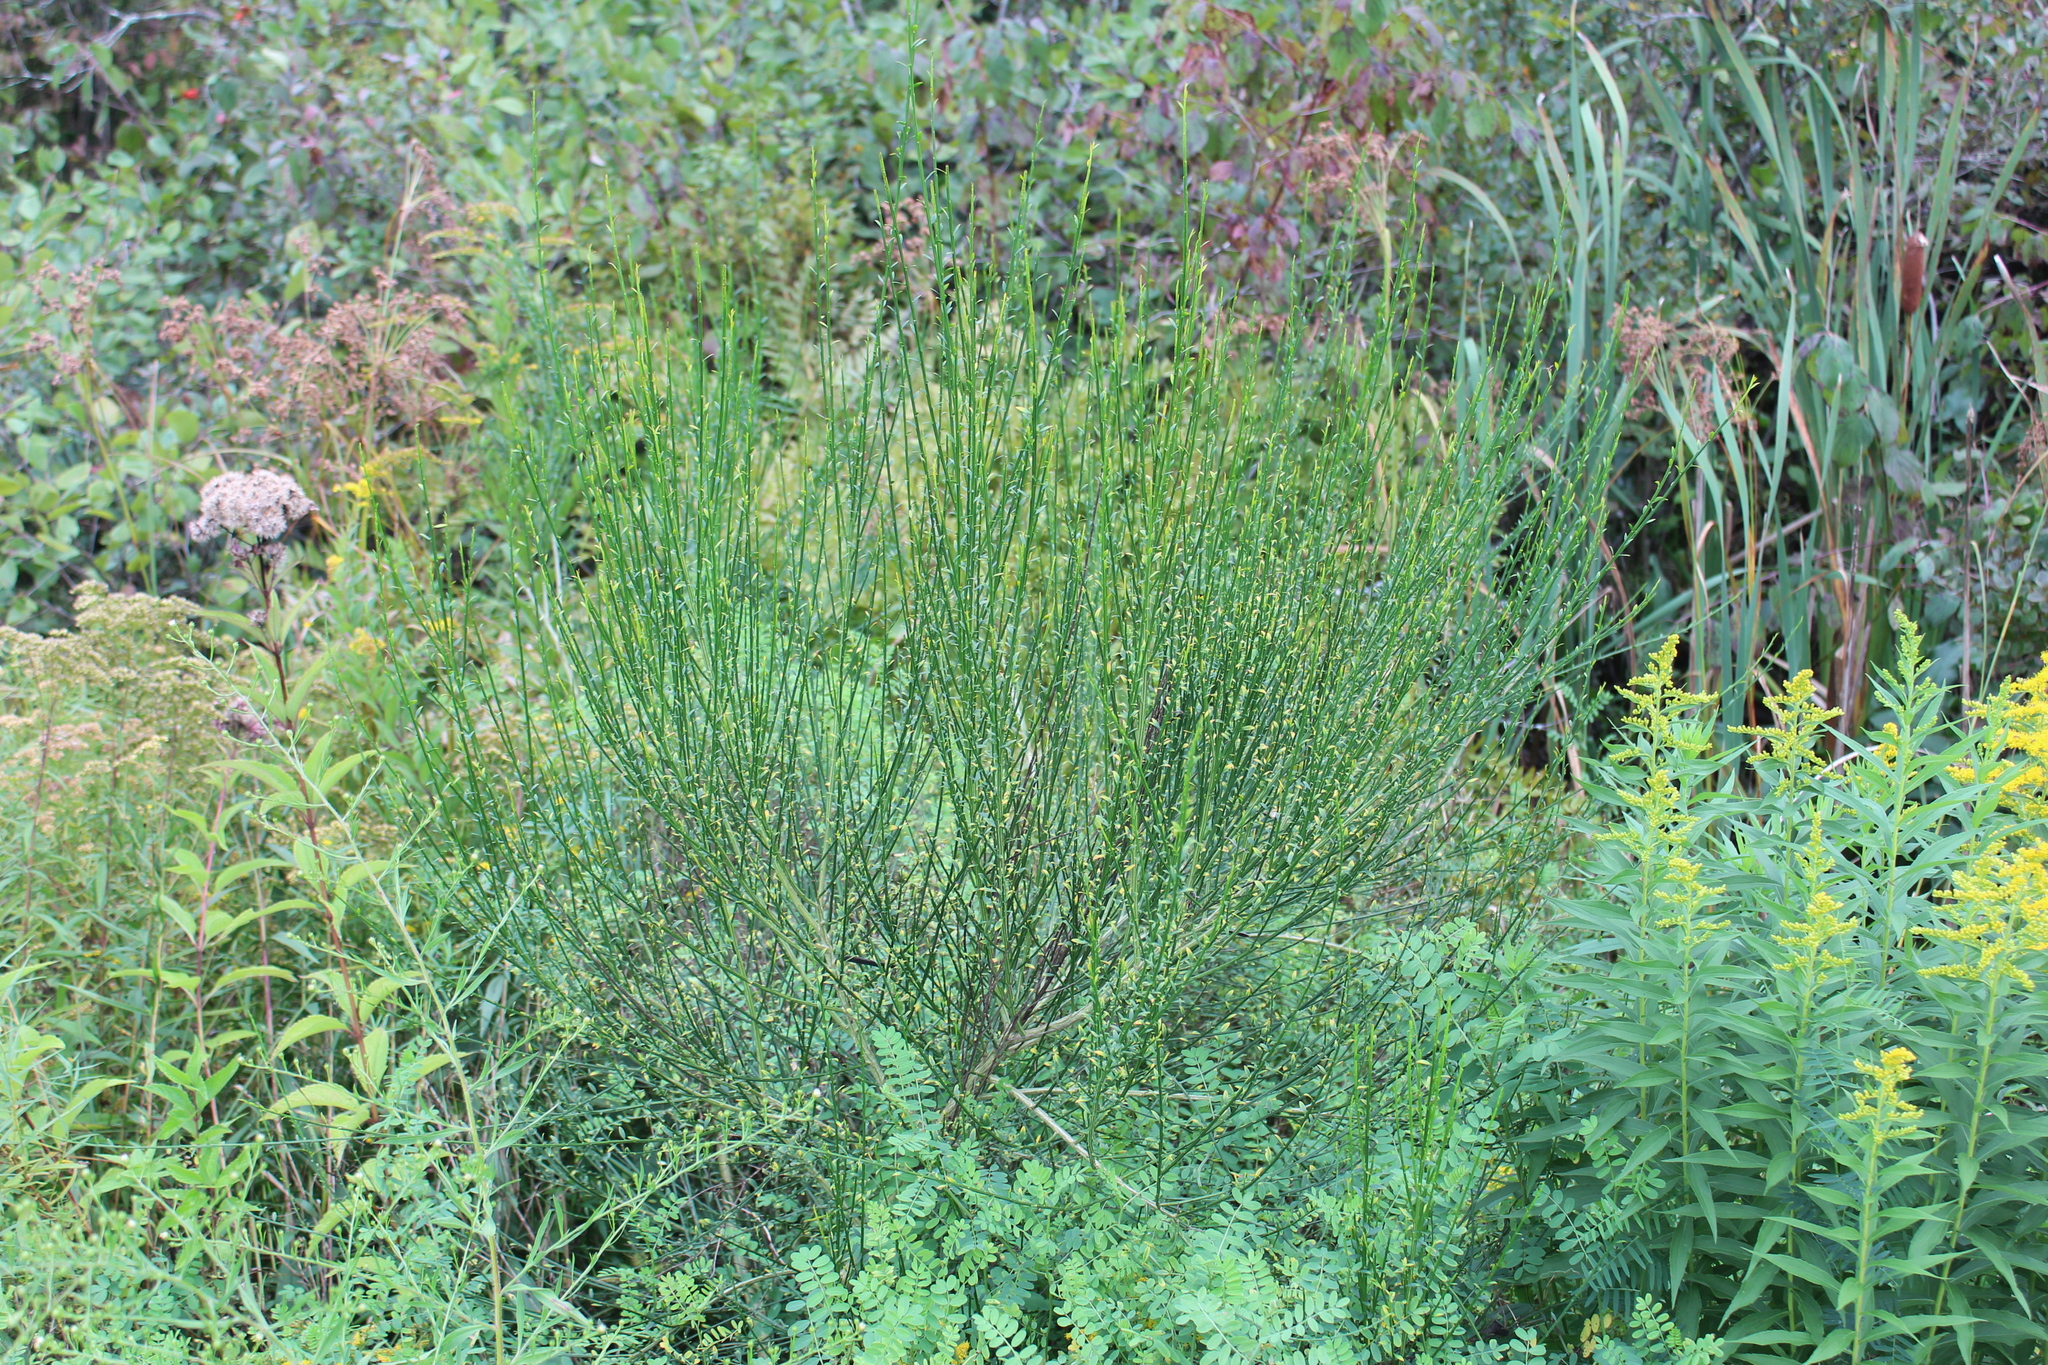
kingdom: Plantae
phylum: Tracheophyta
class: Magnoliopsida
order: Fabales
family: Fabaceae
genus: Cytisus
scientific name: Cytisus scoparius
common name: Scotch broom
